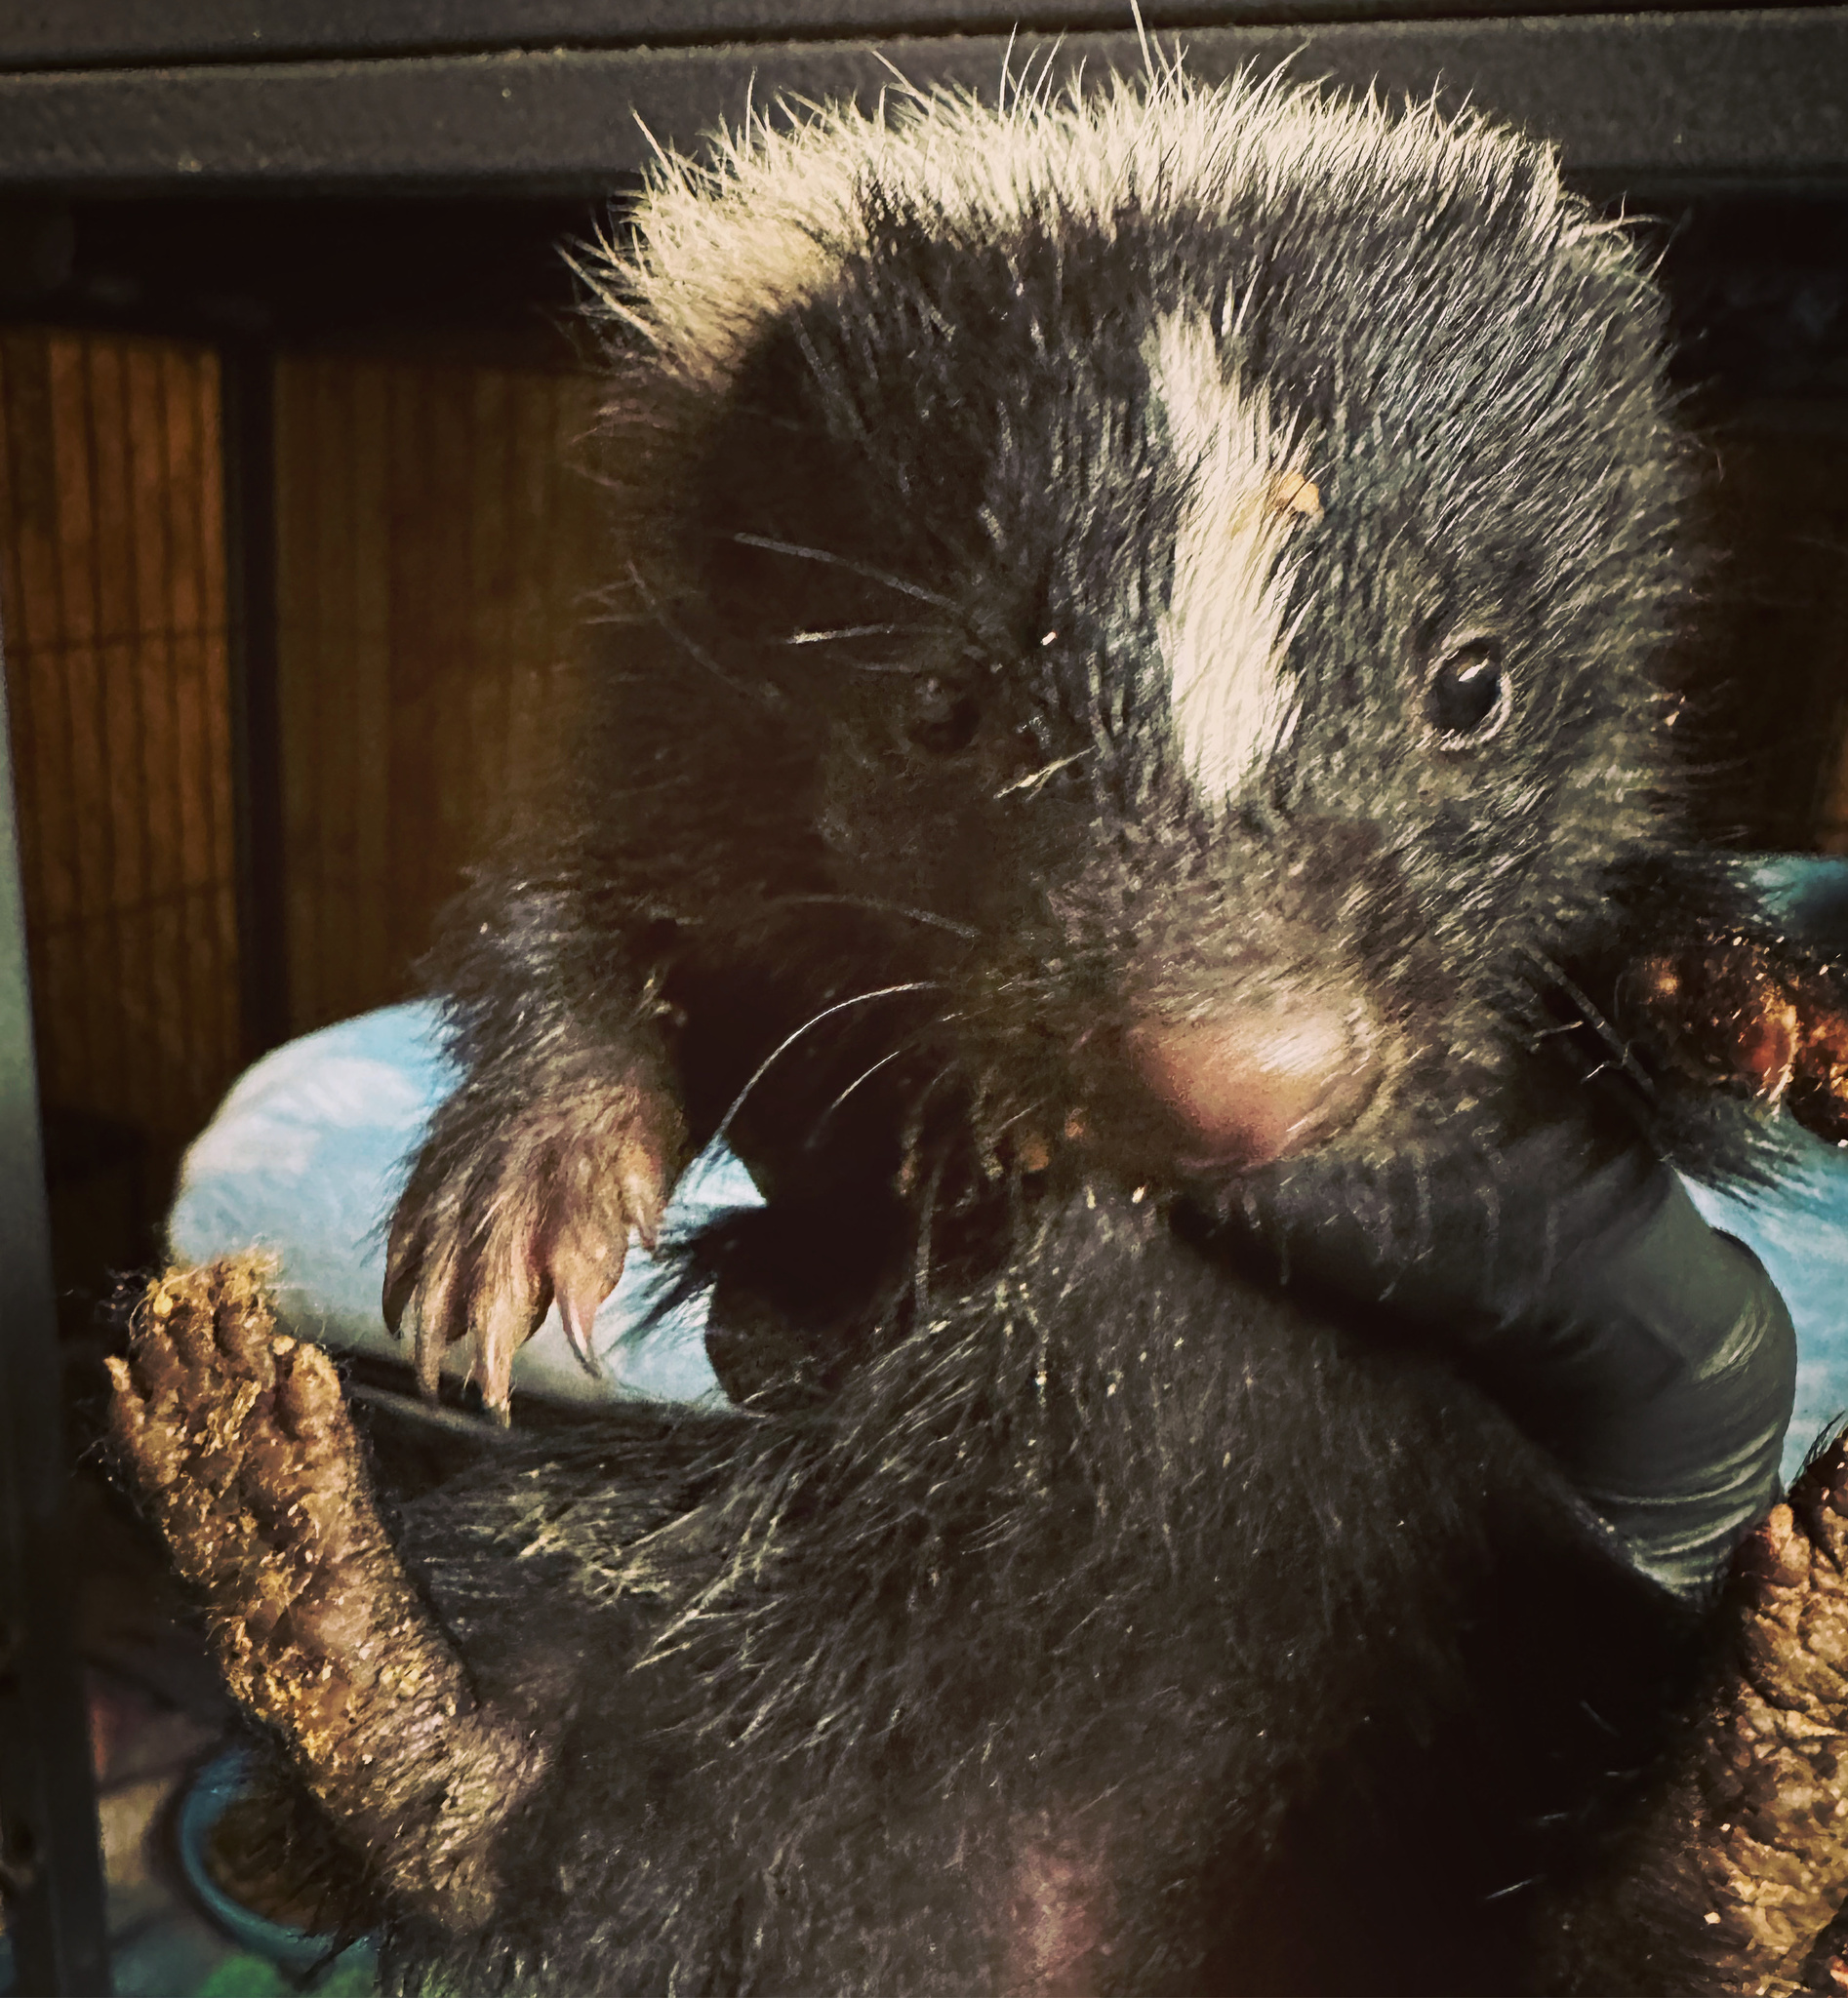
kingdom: Animalia
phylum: Chordata
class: Mammalia
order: Carnivora
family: Mephitidae
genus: Mephitis
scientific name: Mephitis mephitis
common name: Striped skunk
